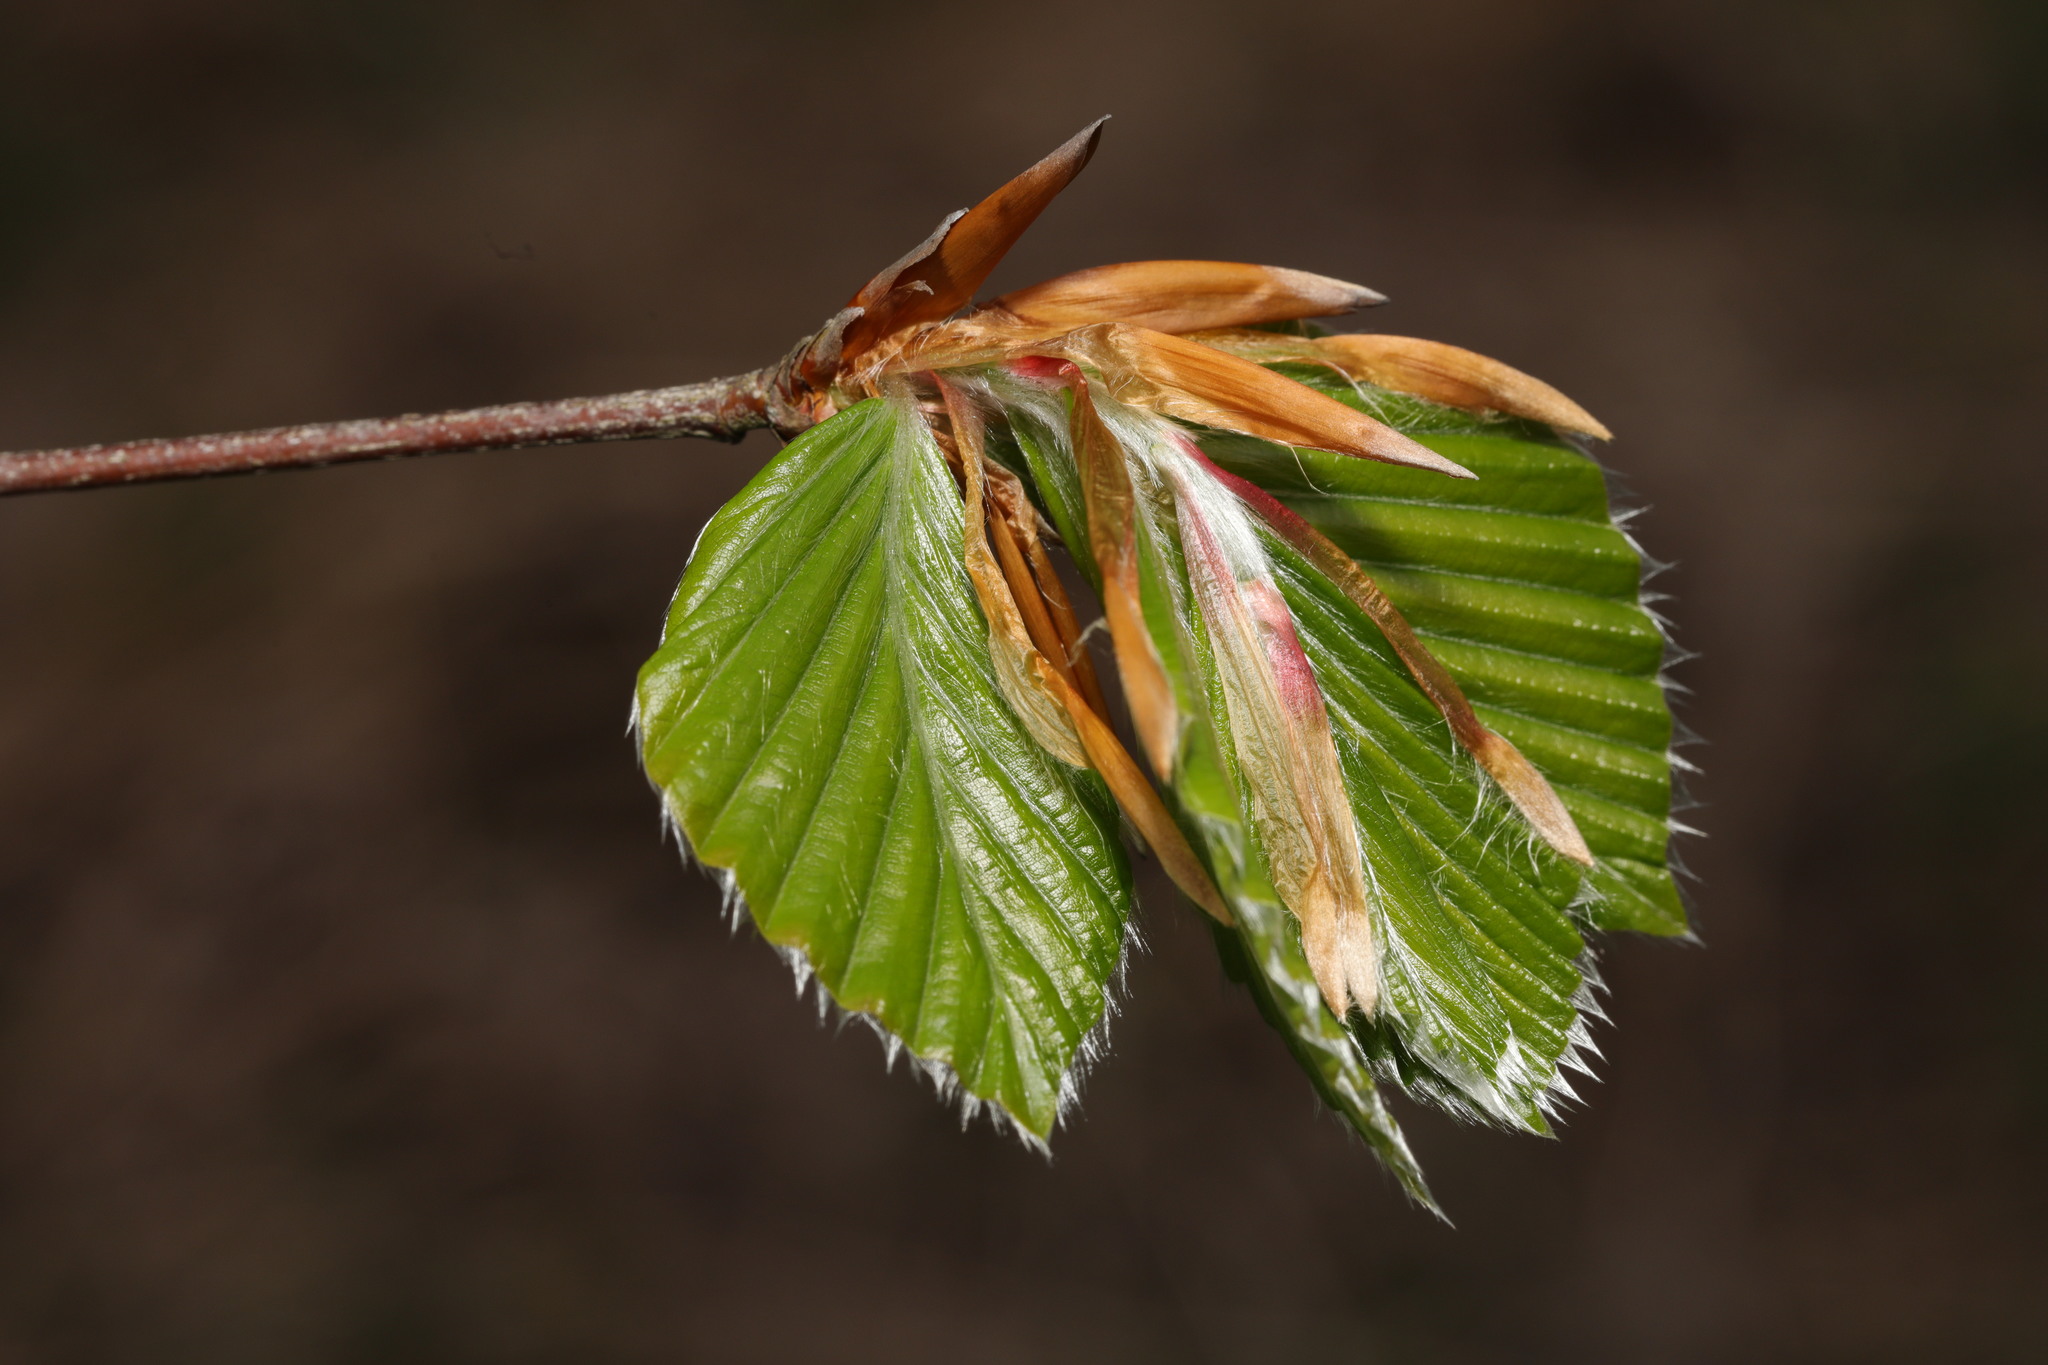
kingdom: Plantae
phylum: Tracheophyta
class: Magnoliopsida
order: Fagales
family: Fagaceae
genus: Fagus
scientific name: Fagus sylvatica
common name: Beech
